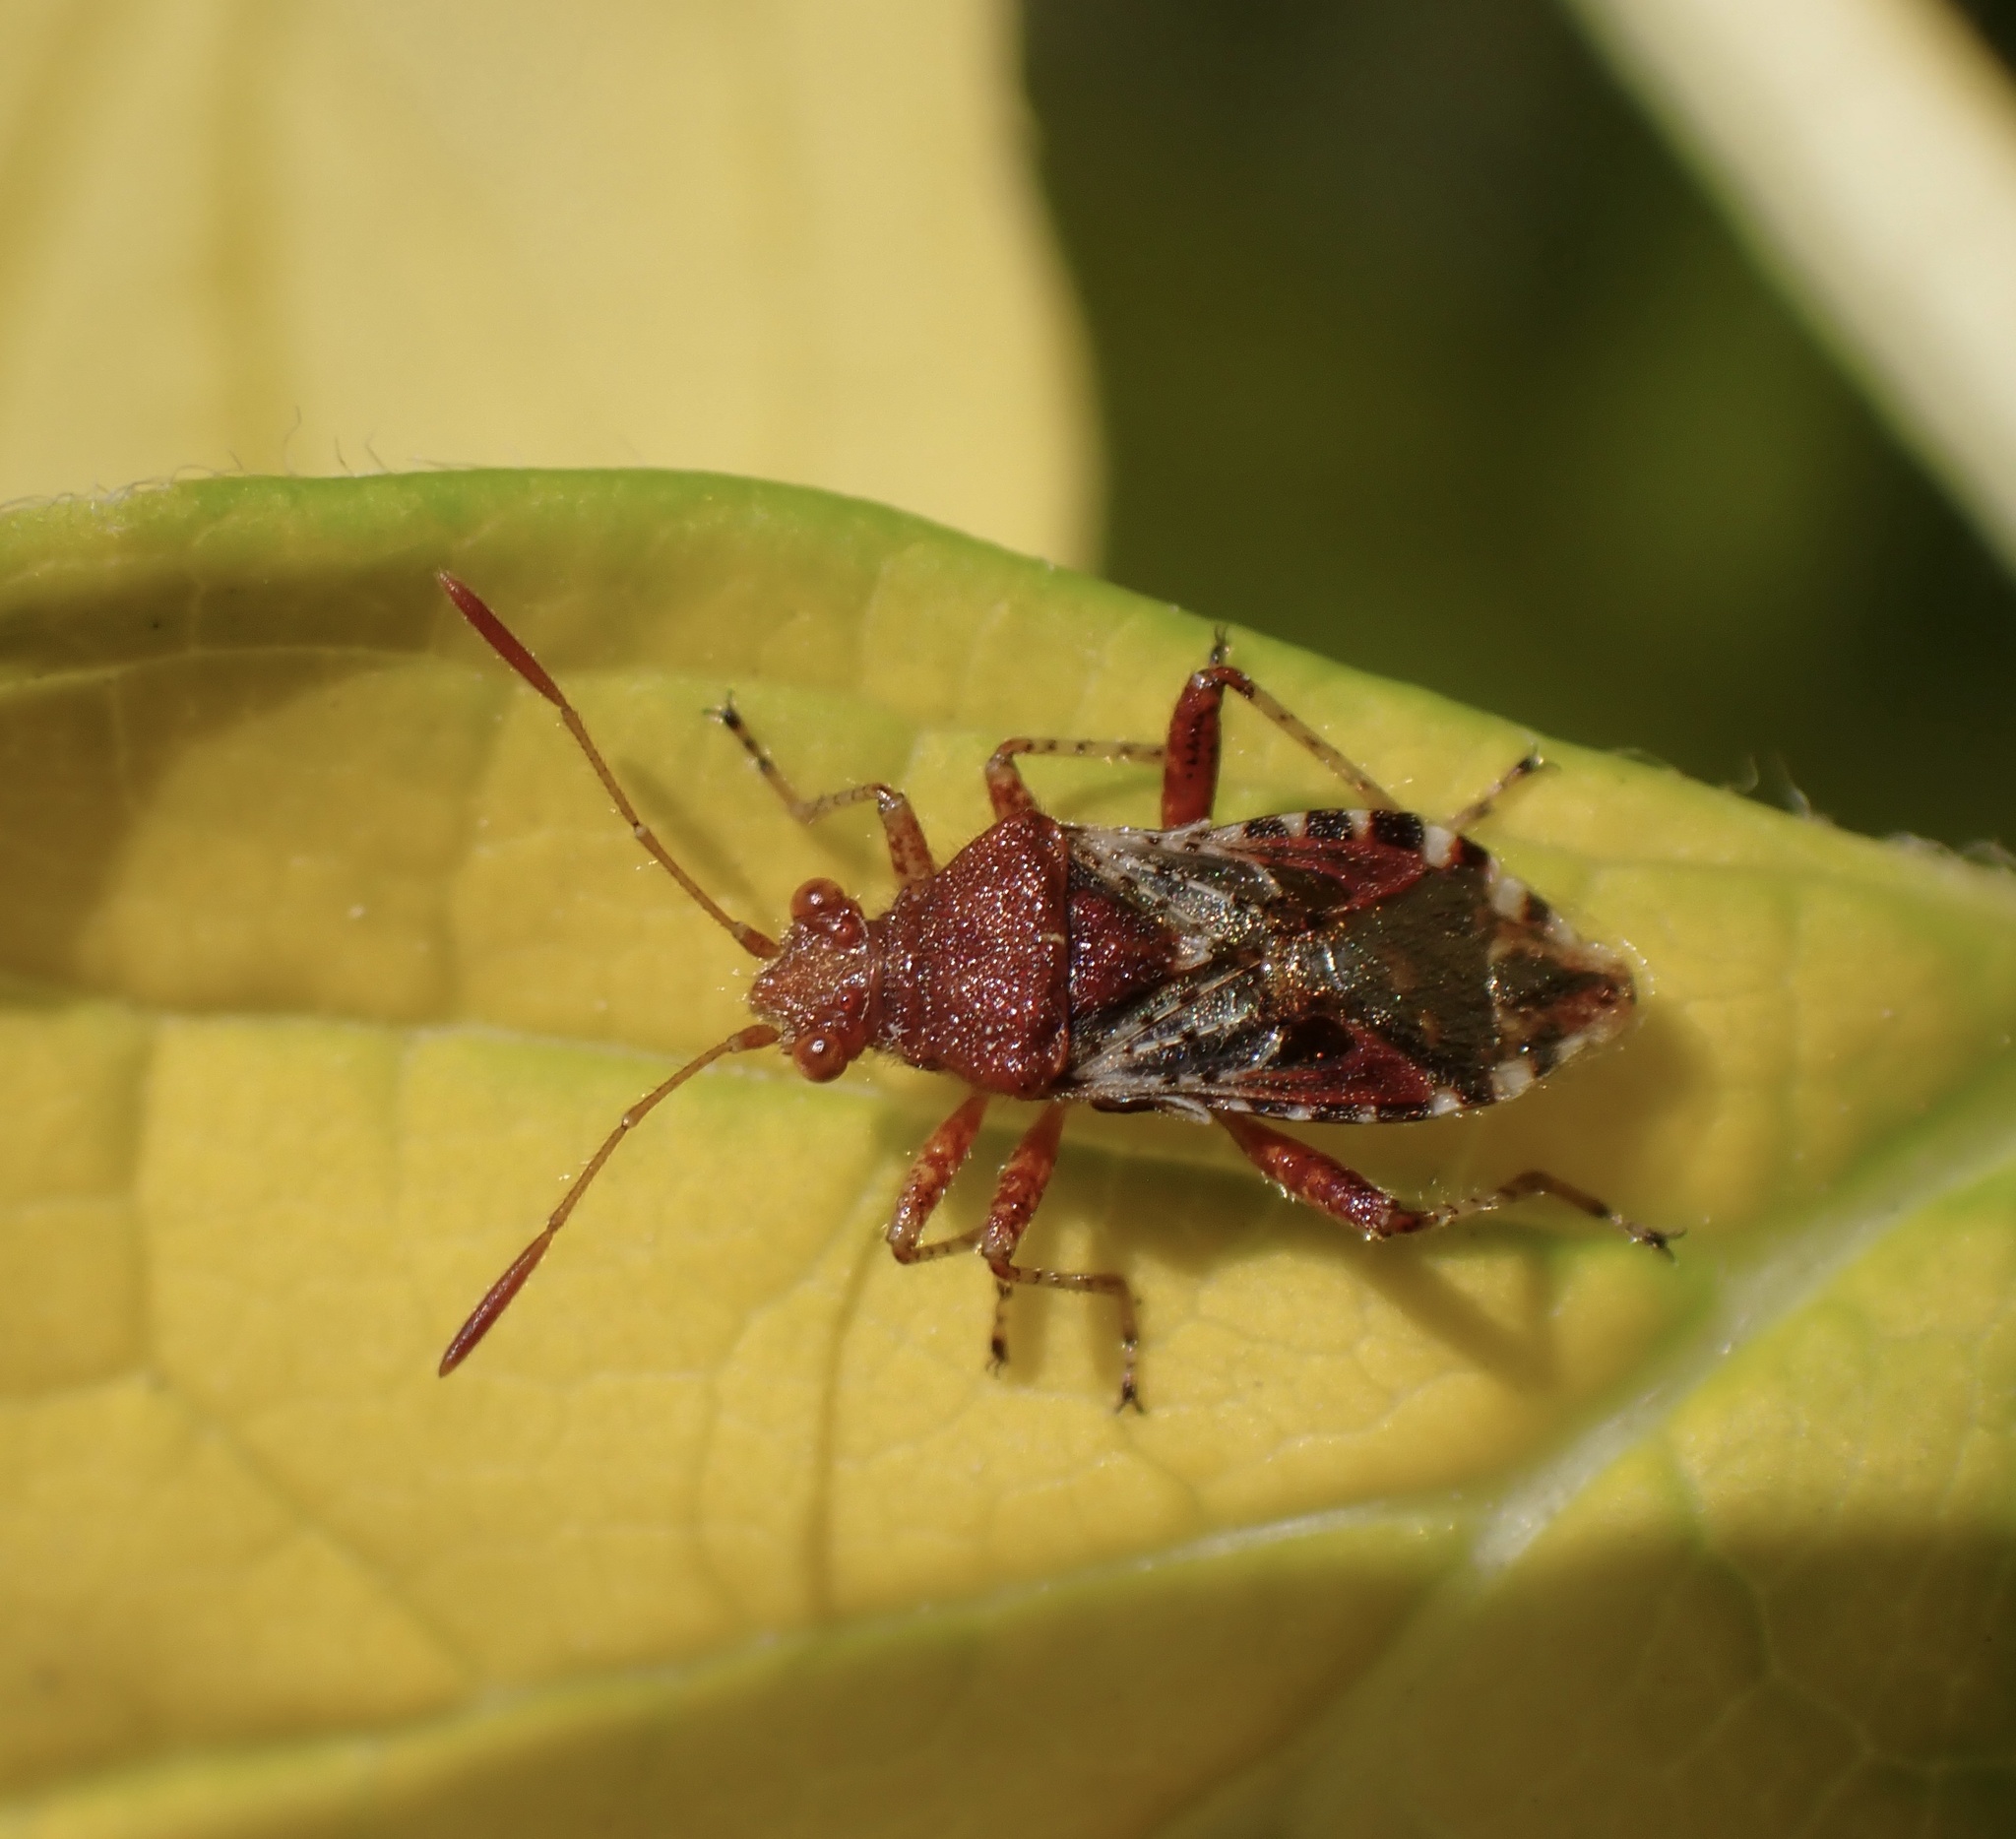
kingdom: Animalia
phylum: Arthropoda
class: Insecta
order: Hemiptera
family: Rhopalidae
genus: Rhopalus
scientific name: Rhopalus subrufus
